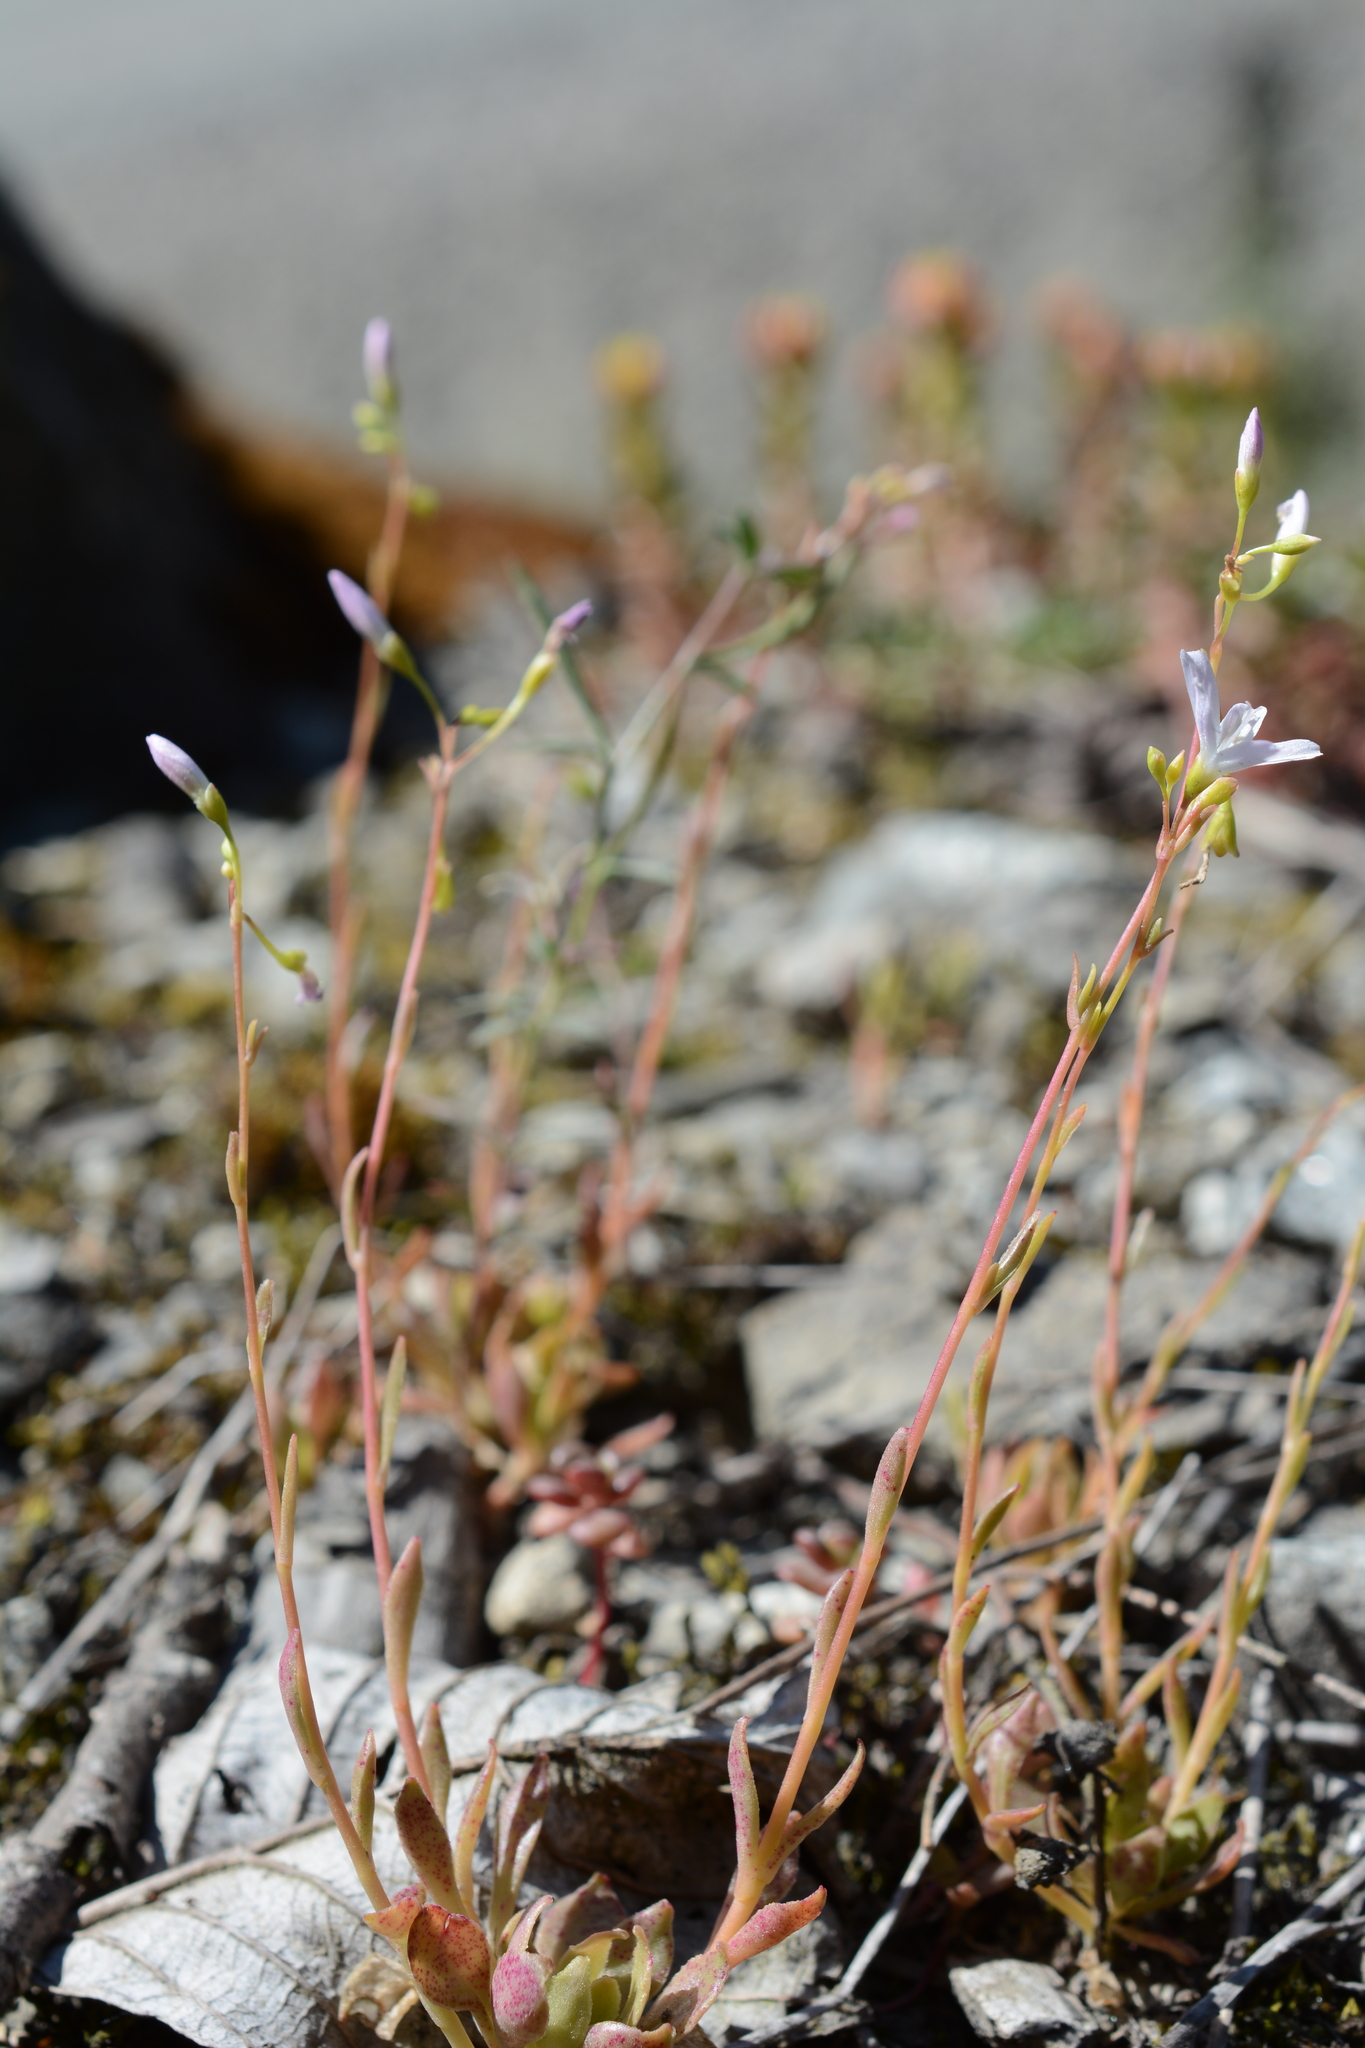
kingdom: Plantae
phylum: Tracheophyta
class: Magnoliopsida
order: Caryophyllales
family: Montiaceae
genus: Montia
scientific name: Montia parvifolia
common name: Small-leaved blinks
